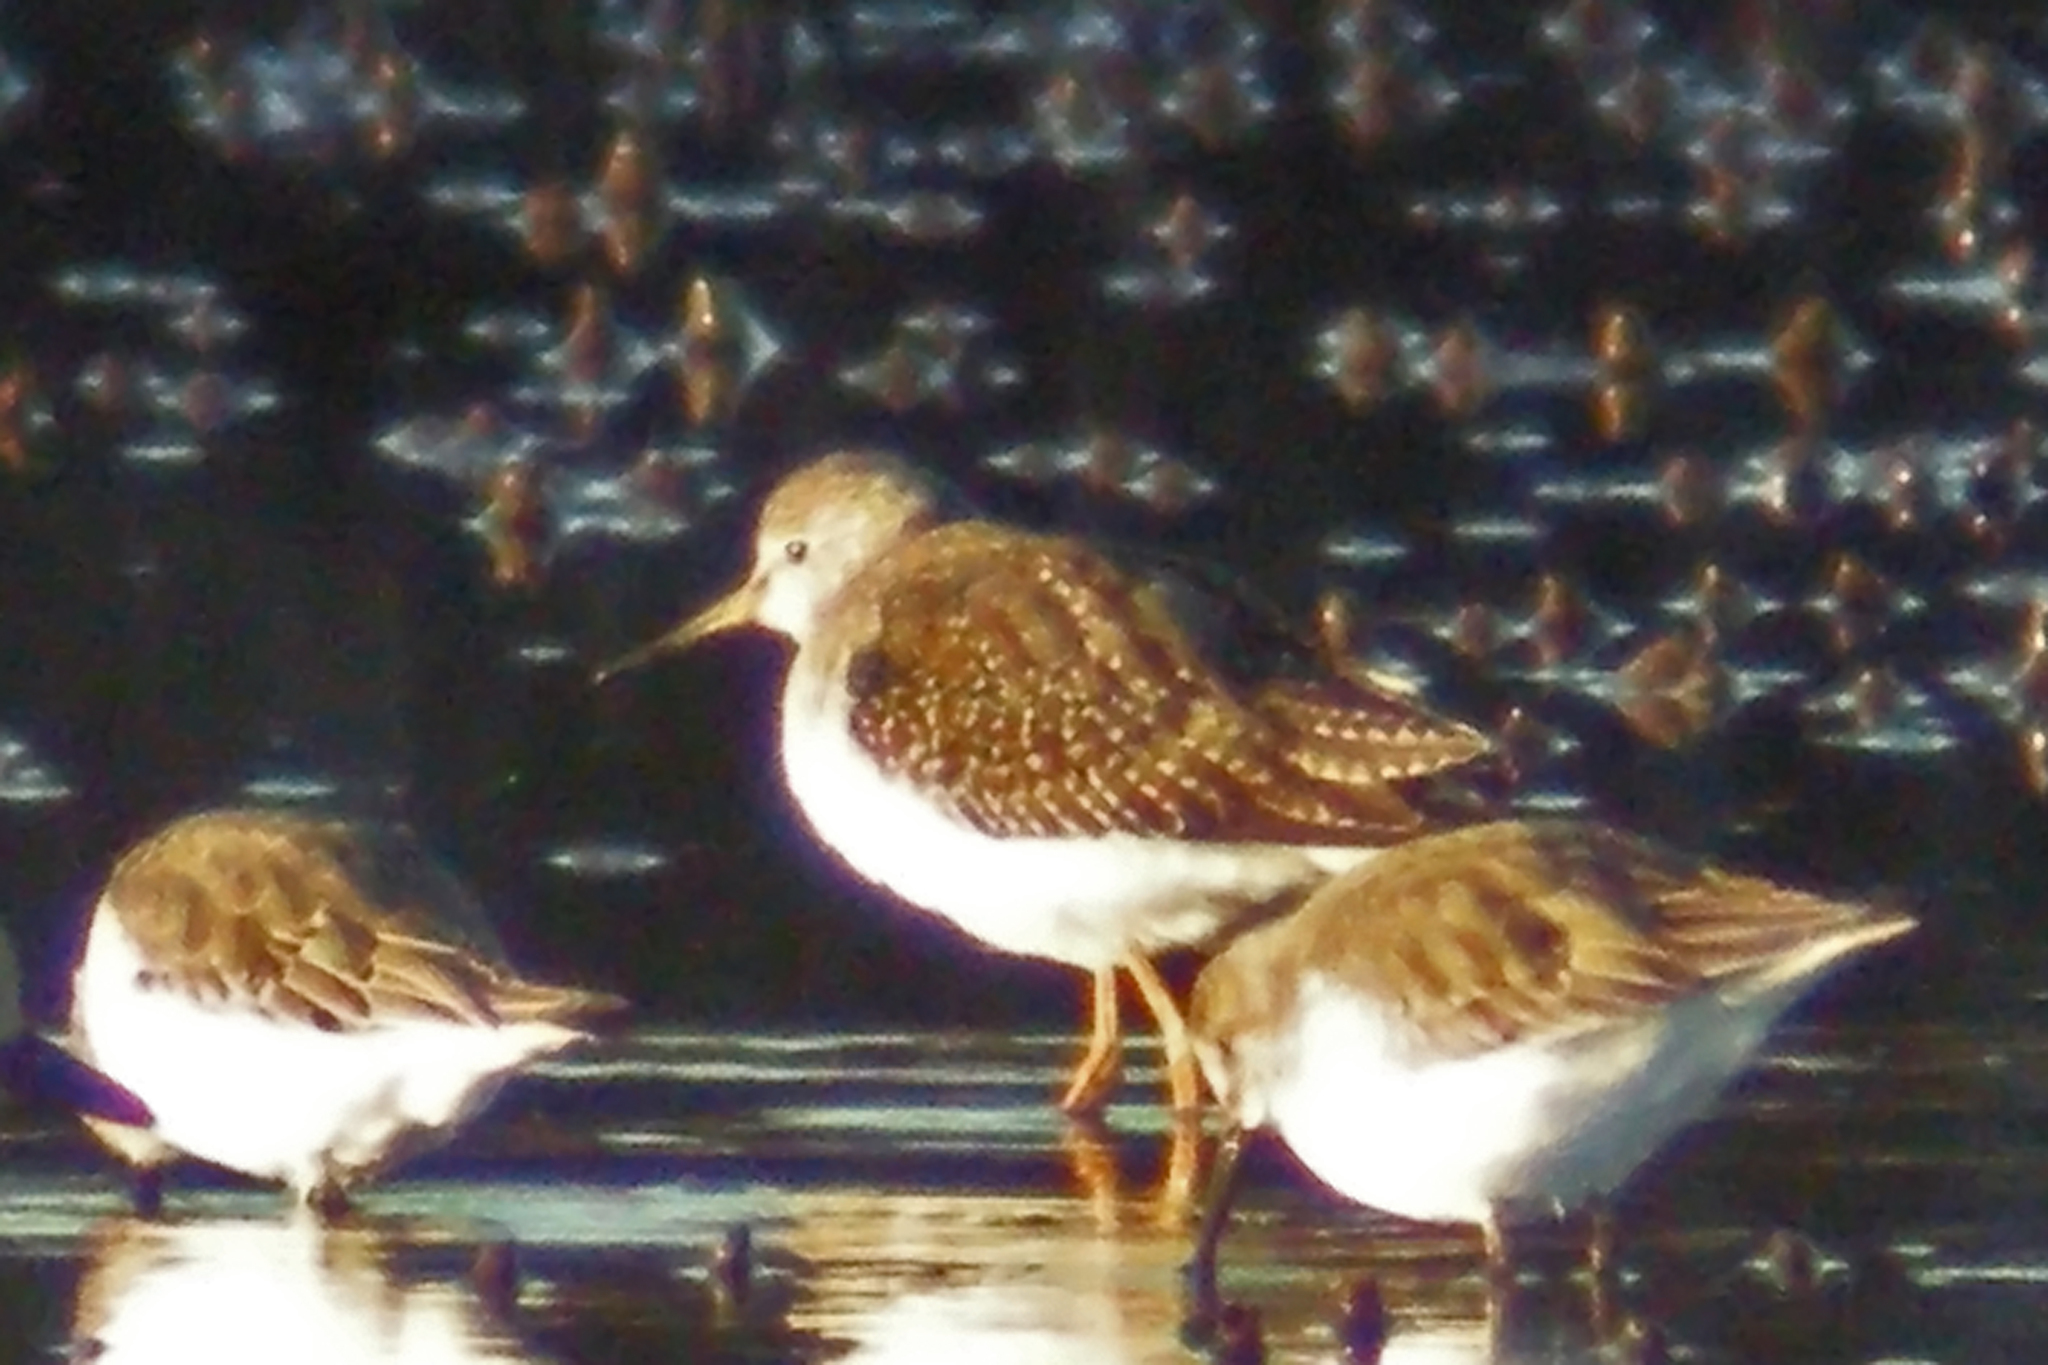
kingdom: Animalia
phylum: Chordata
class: Aves
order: Charadriiformes
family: Scolopacidae
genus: Tringa
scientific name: Tringa flavipes
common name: Lesser yellowlegs
